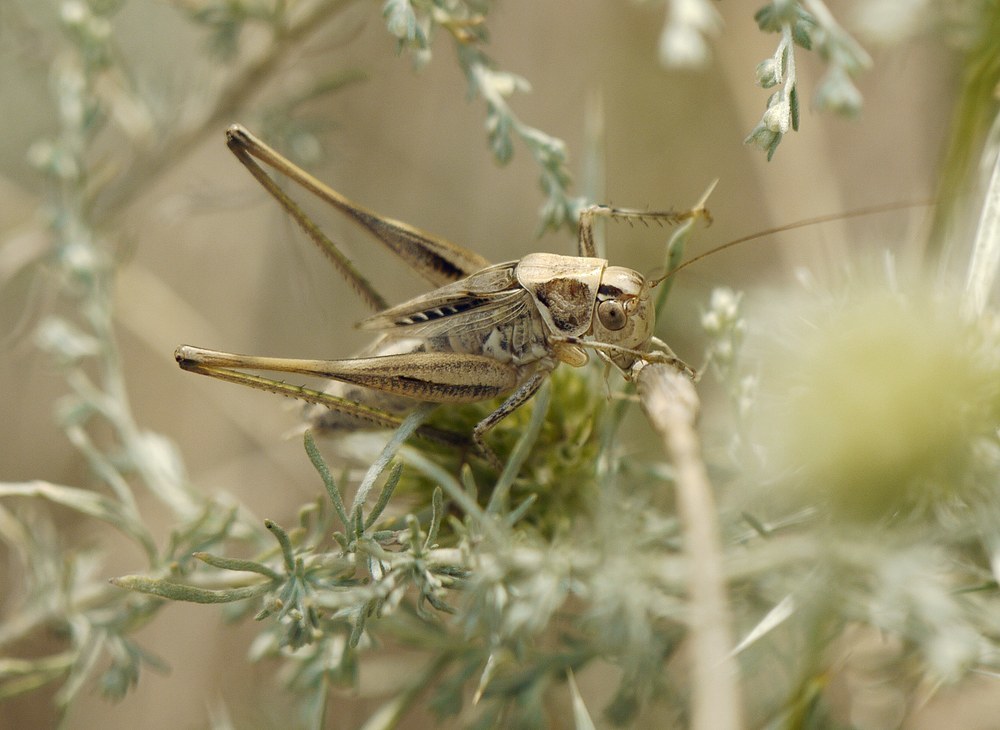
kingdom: Animalia
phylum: Arthropoda
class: Insecta
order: Orthoptera
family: Tettigoniidae
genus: Tessellana
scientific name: Tessellana veyseli
